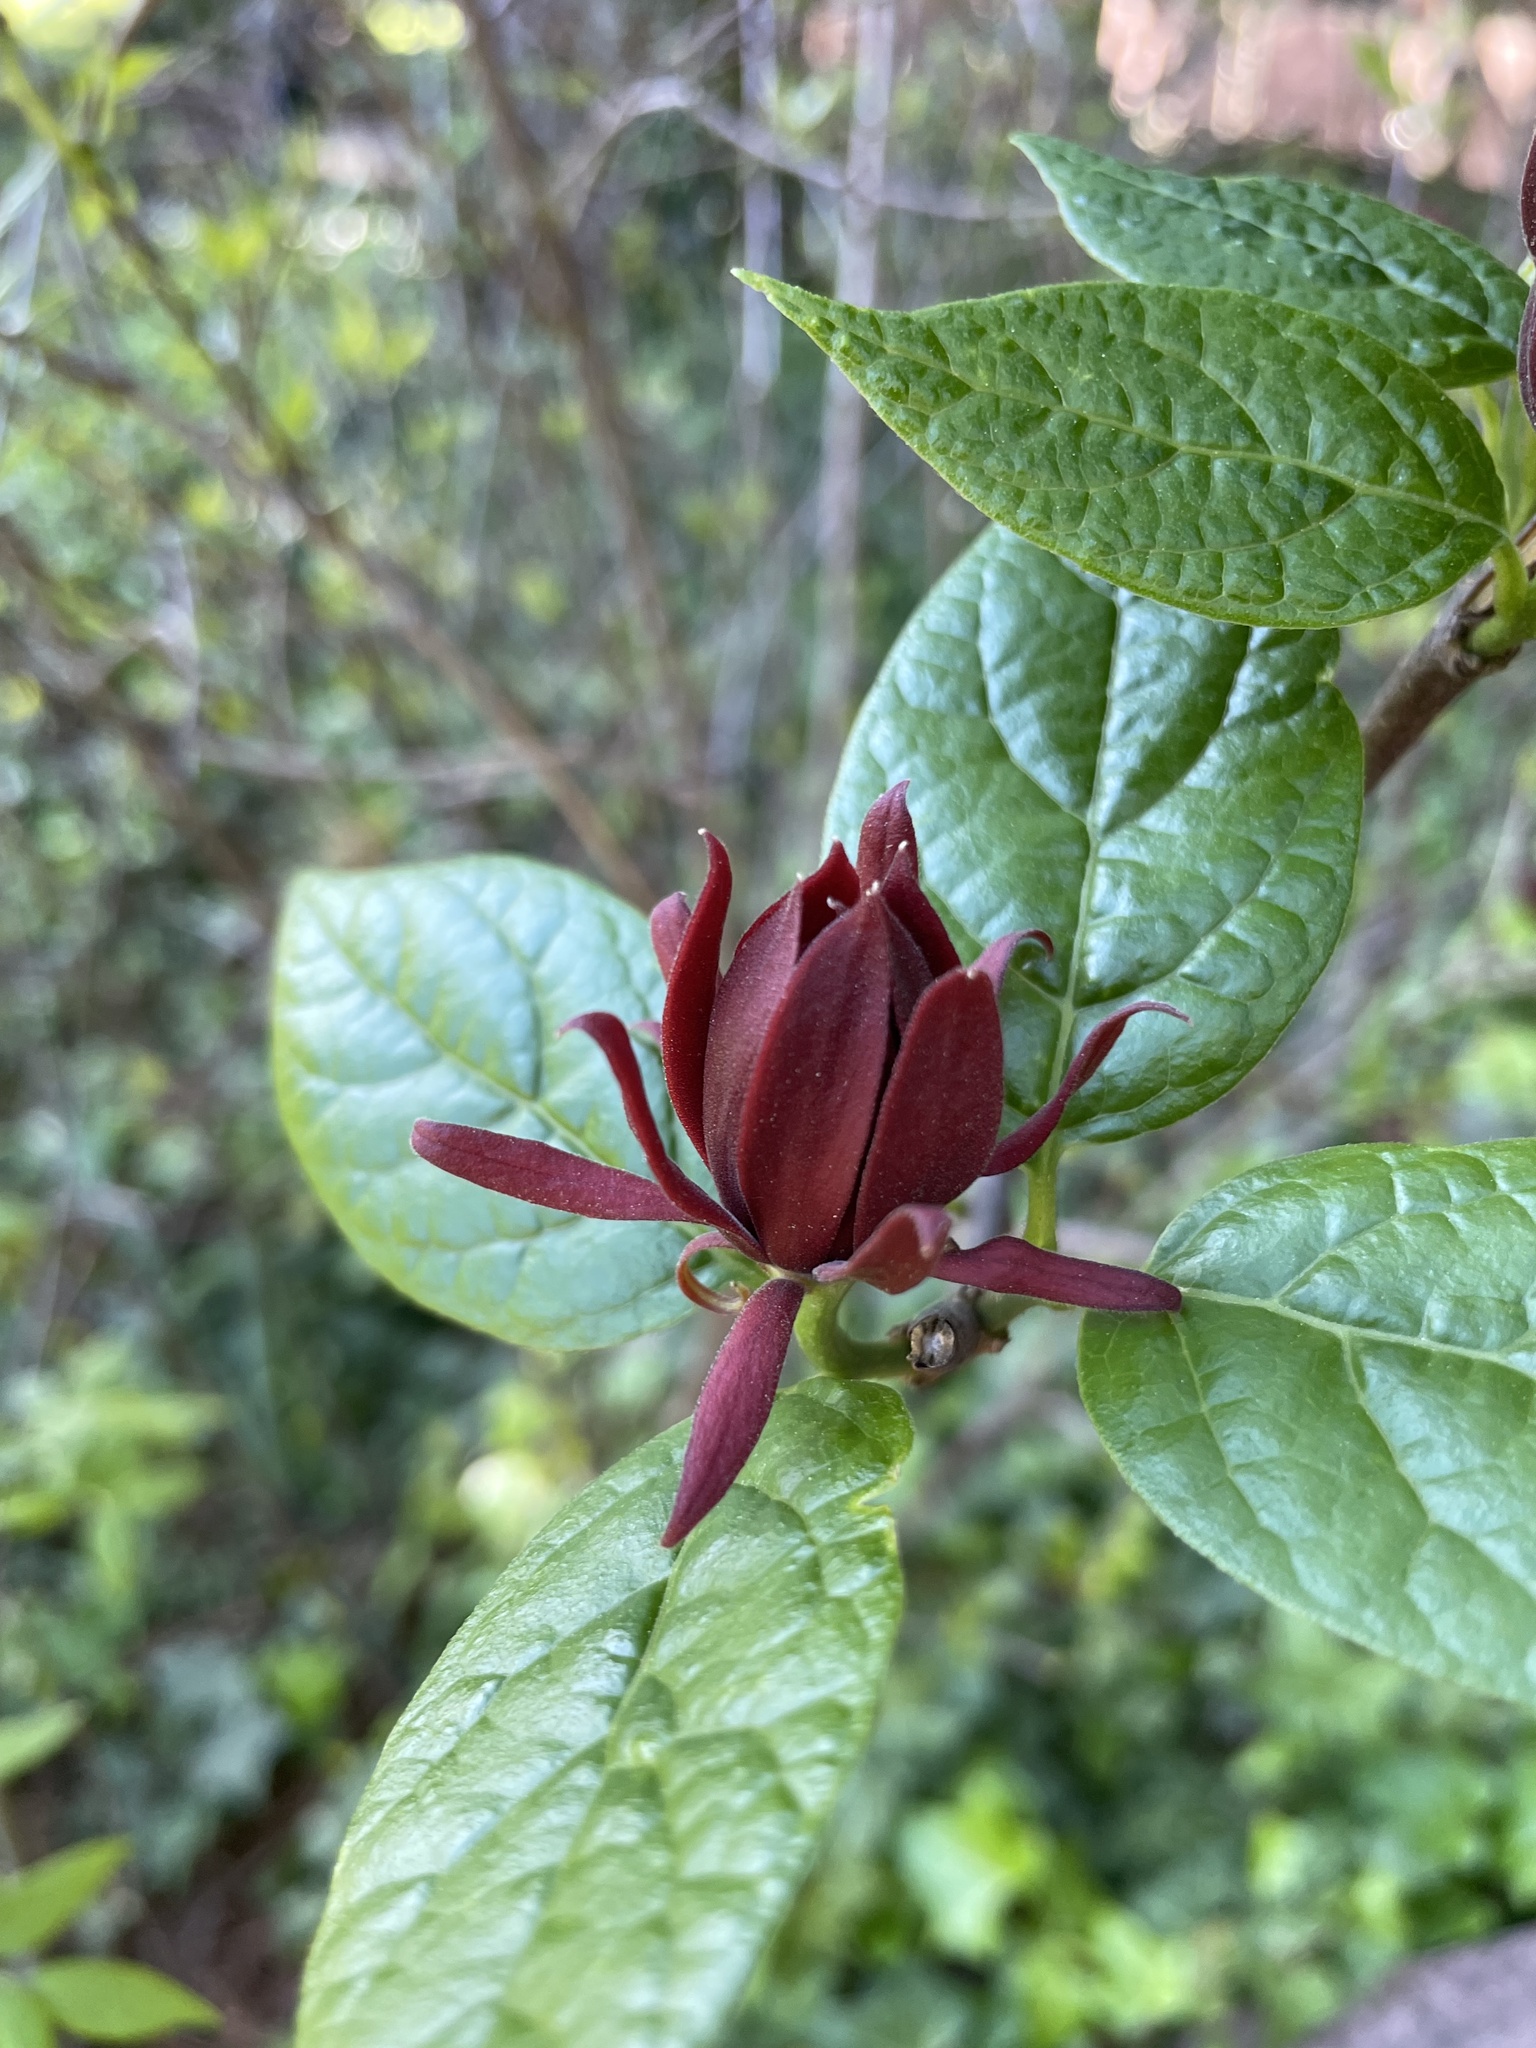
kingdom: Plantae
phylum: Tracheophyta
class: Magnoliopsida
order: Laurales
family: Calycanthaceae
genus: Calycanthus
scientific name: Calycanthus floridus
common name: Carolina-allspice
